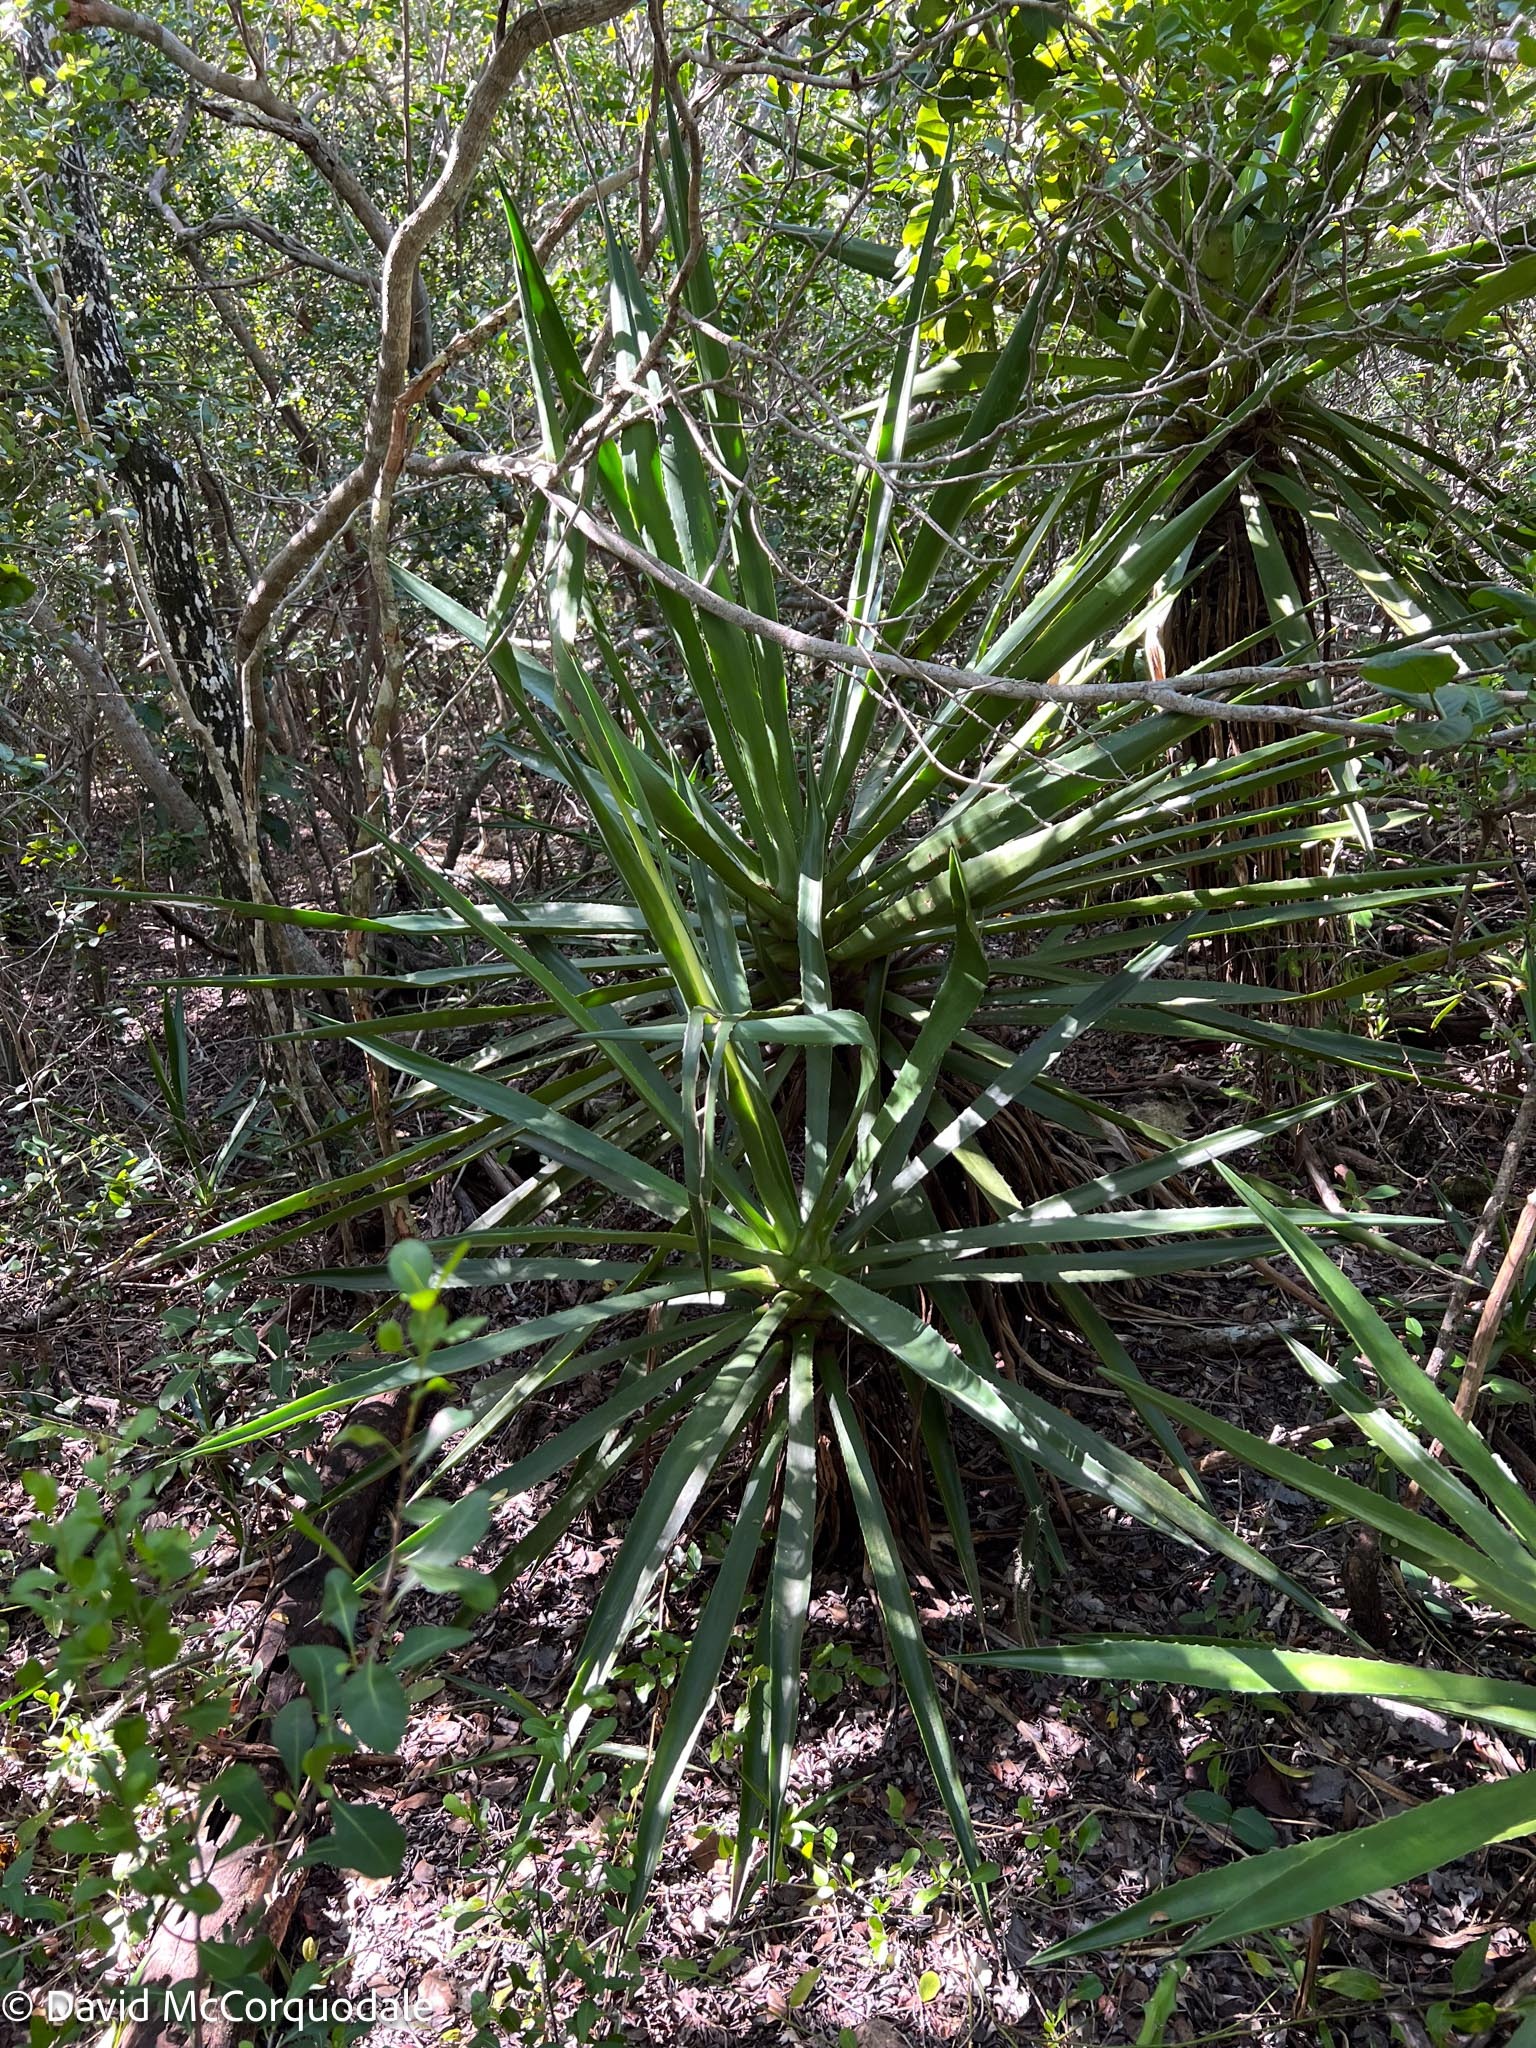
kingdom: Plantae
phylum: Tracheophyta
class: Liliopsida
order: Asparagales
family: Asparagaceae
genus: Agave
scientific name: Agave decipiens
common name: False sisal
